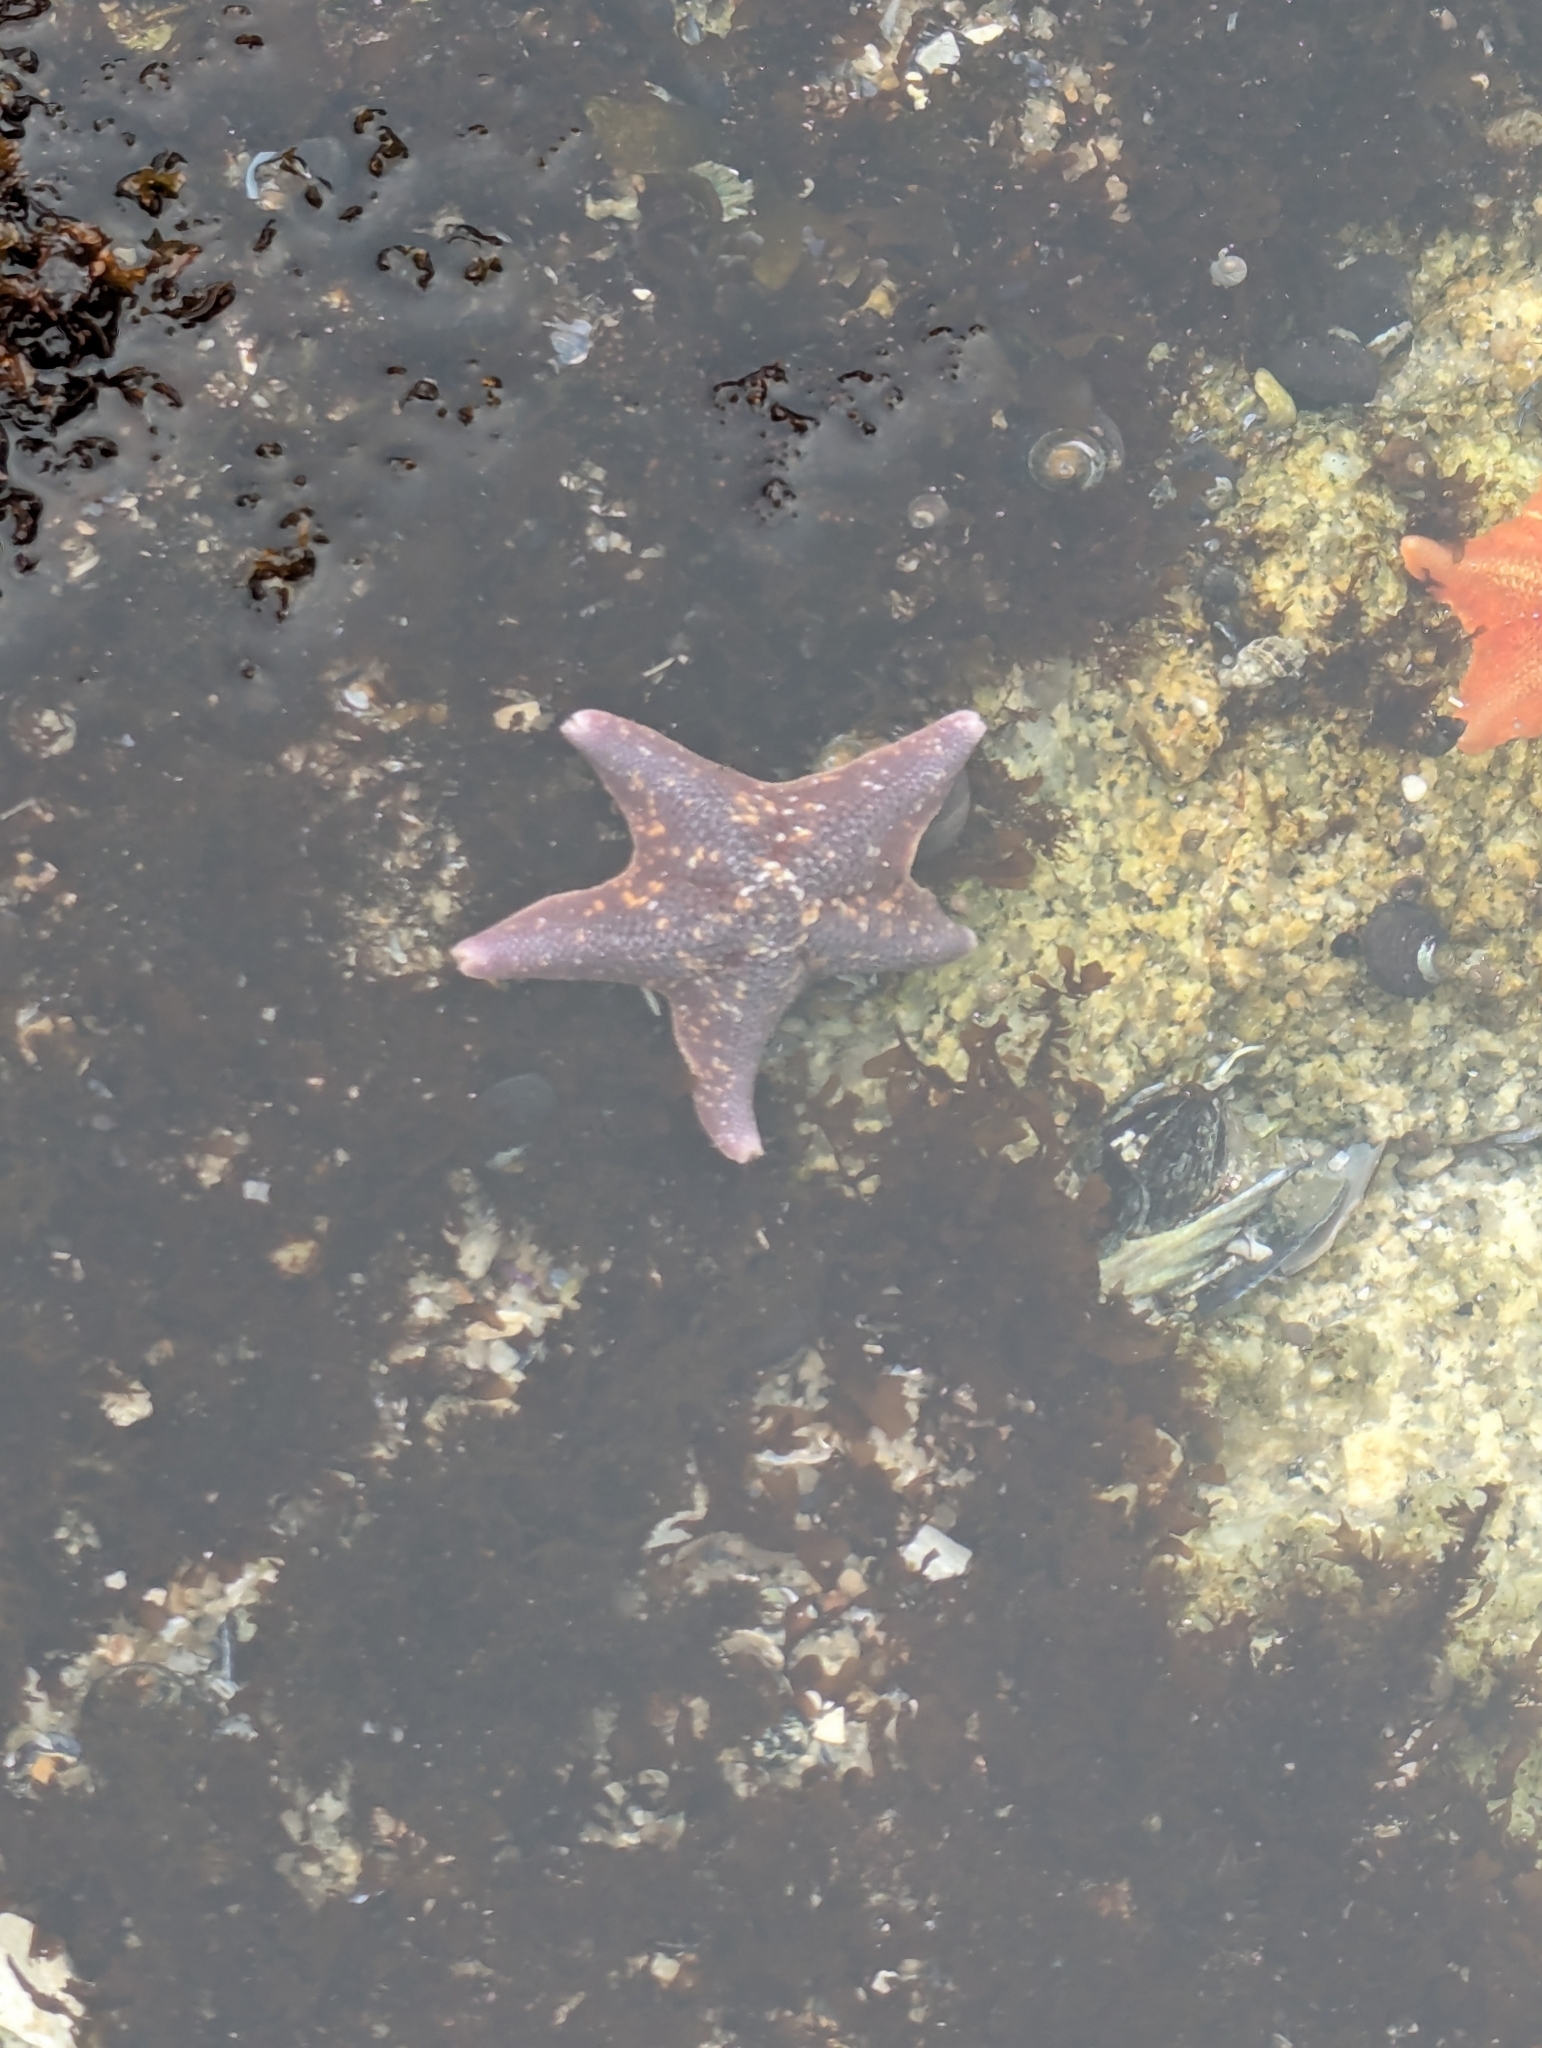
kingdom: Animalia
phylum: Echinodermata
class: Asteroidea
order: Valvatida
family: Asterinidae
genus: Patiria
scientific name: Patiria miniata
